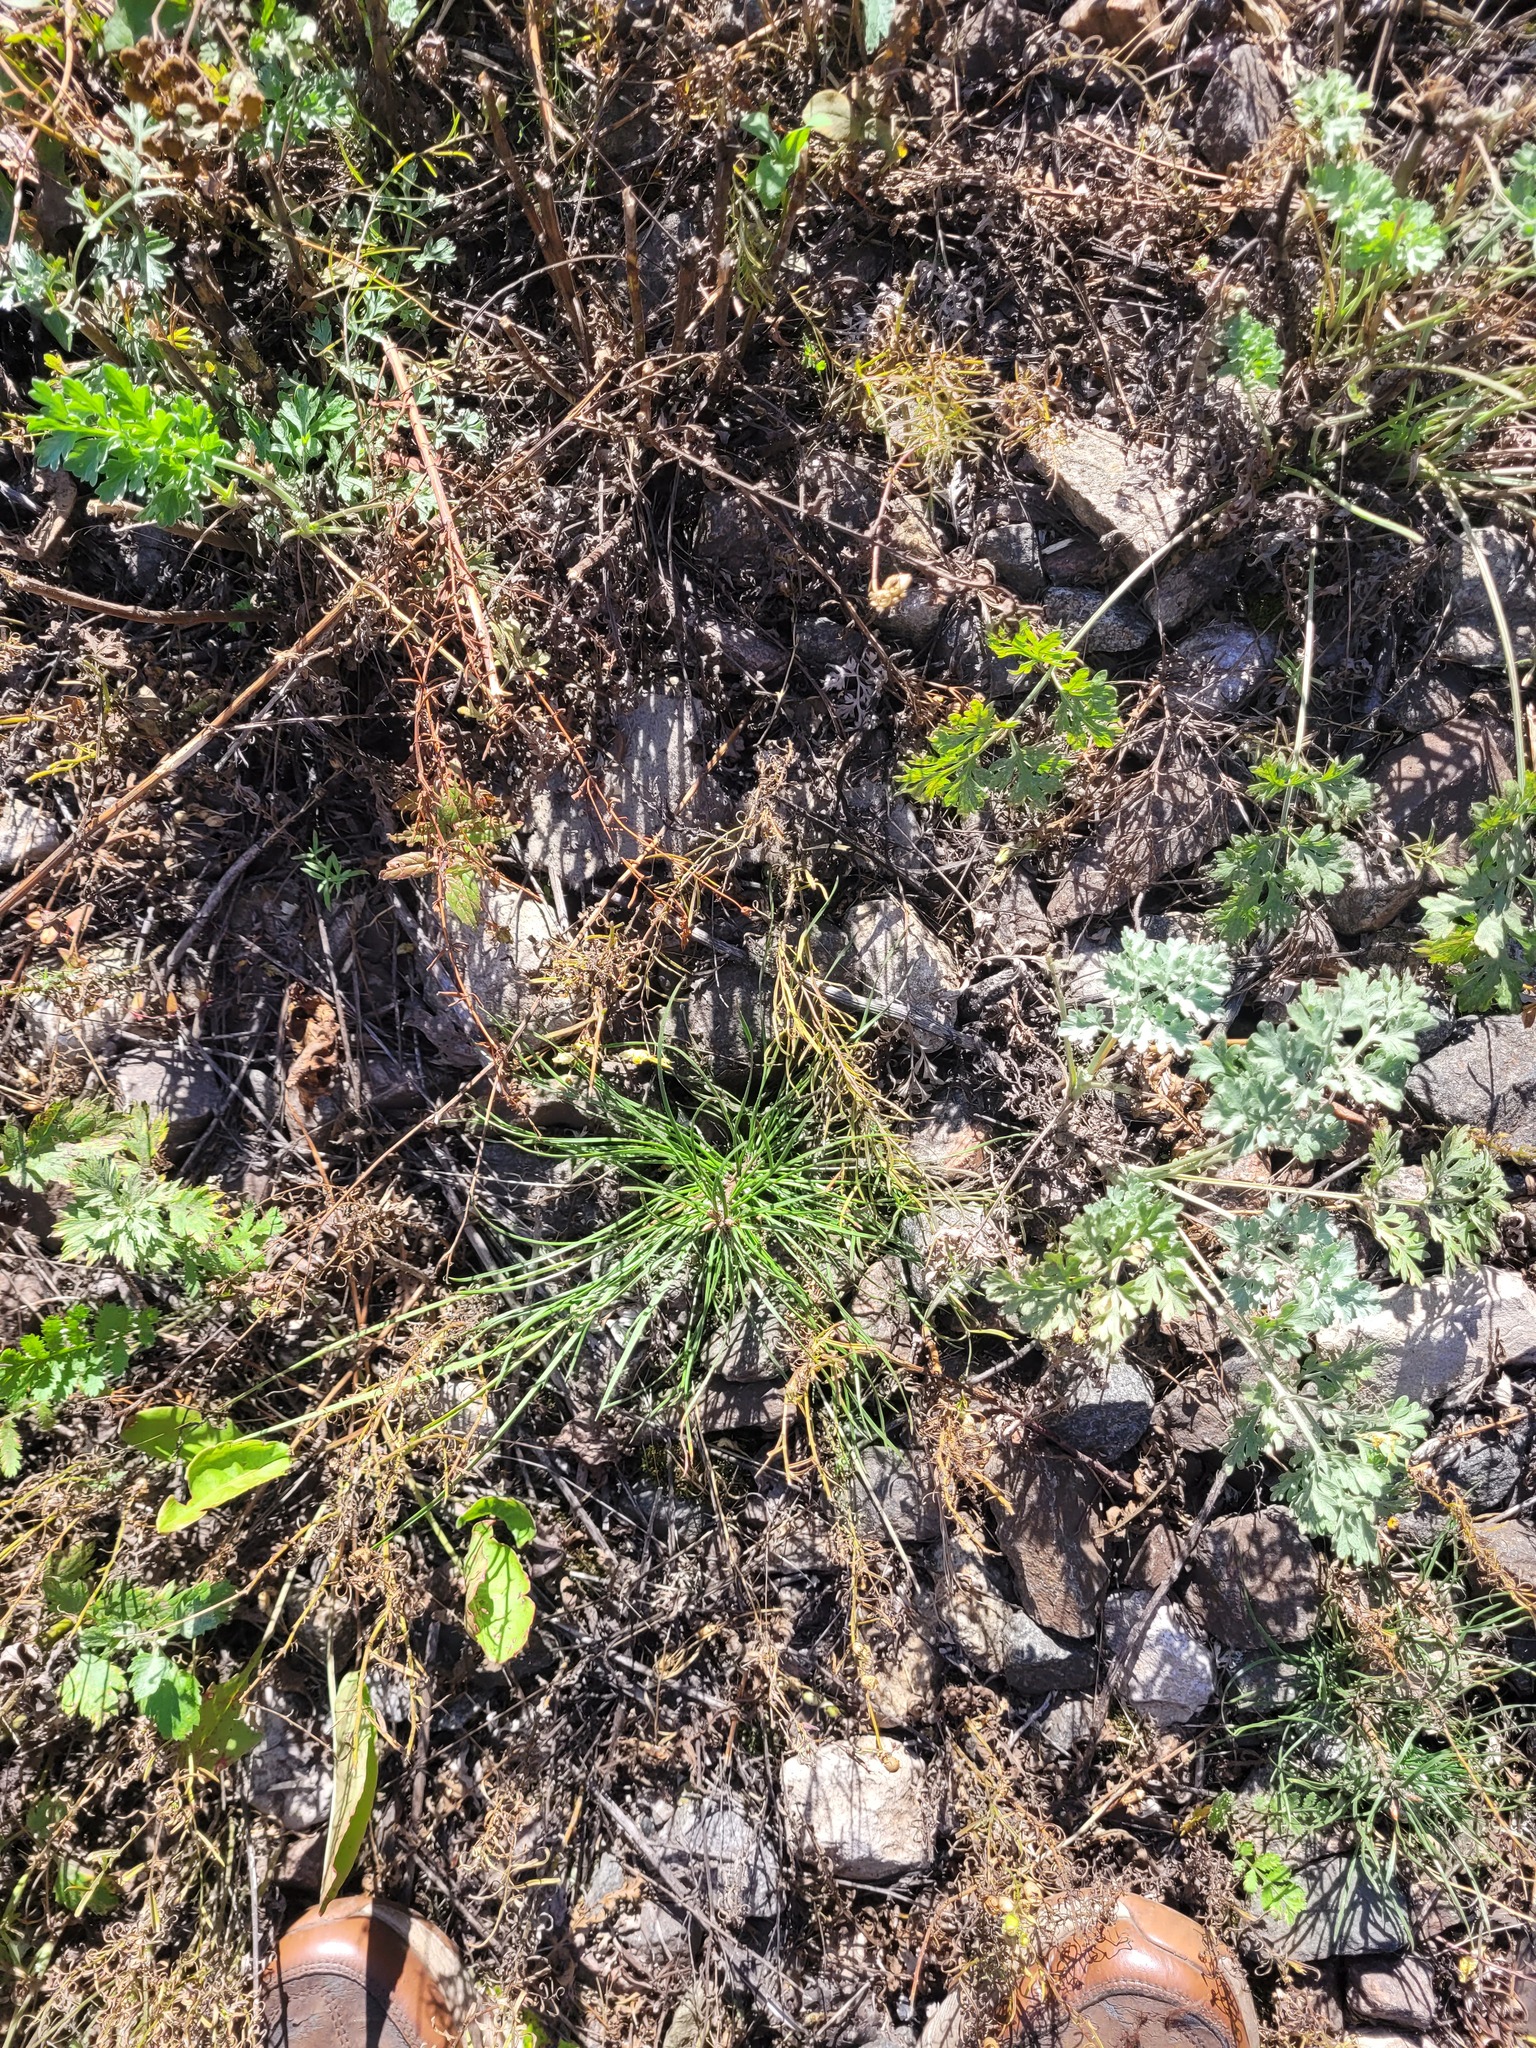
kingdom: Plantae
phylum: Tracheophyta
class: Pinopsida
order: Pinales
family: Pinaceae
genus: Pinus
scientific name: Pinus sylvestris
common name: Scots pine
